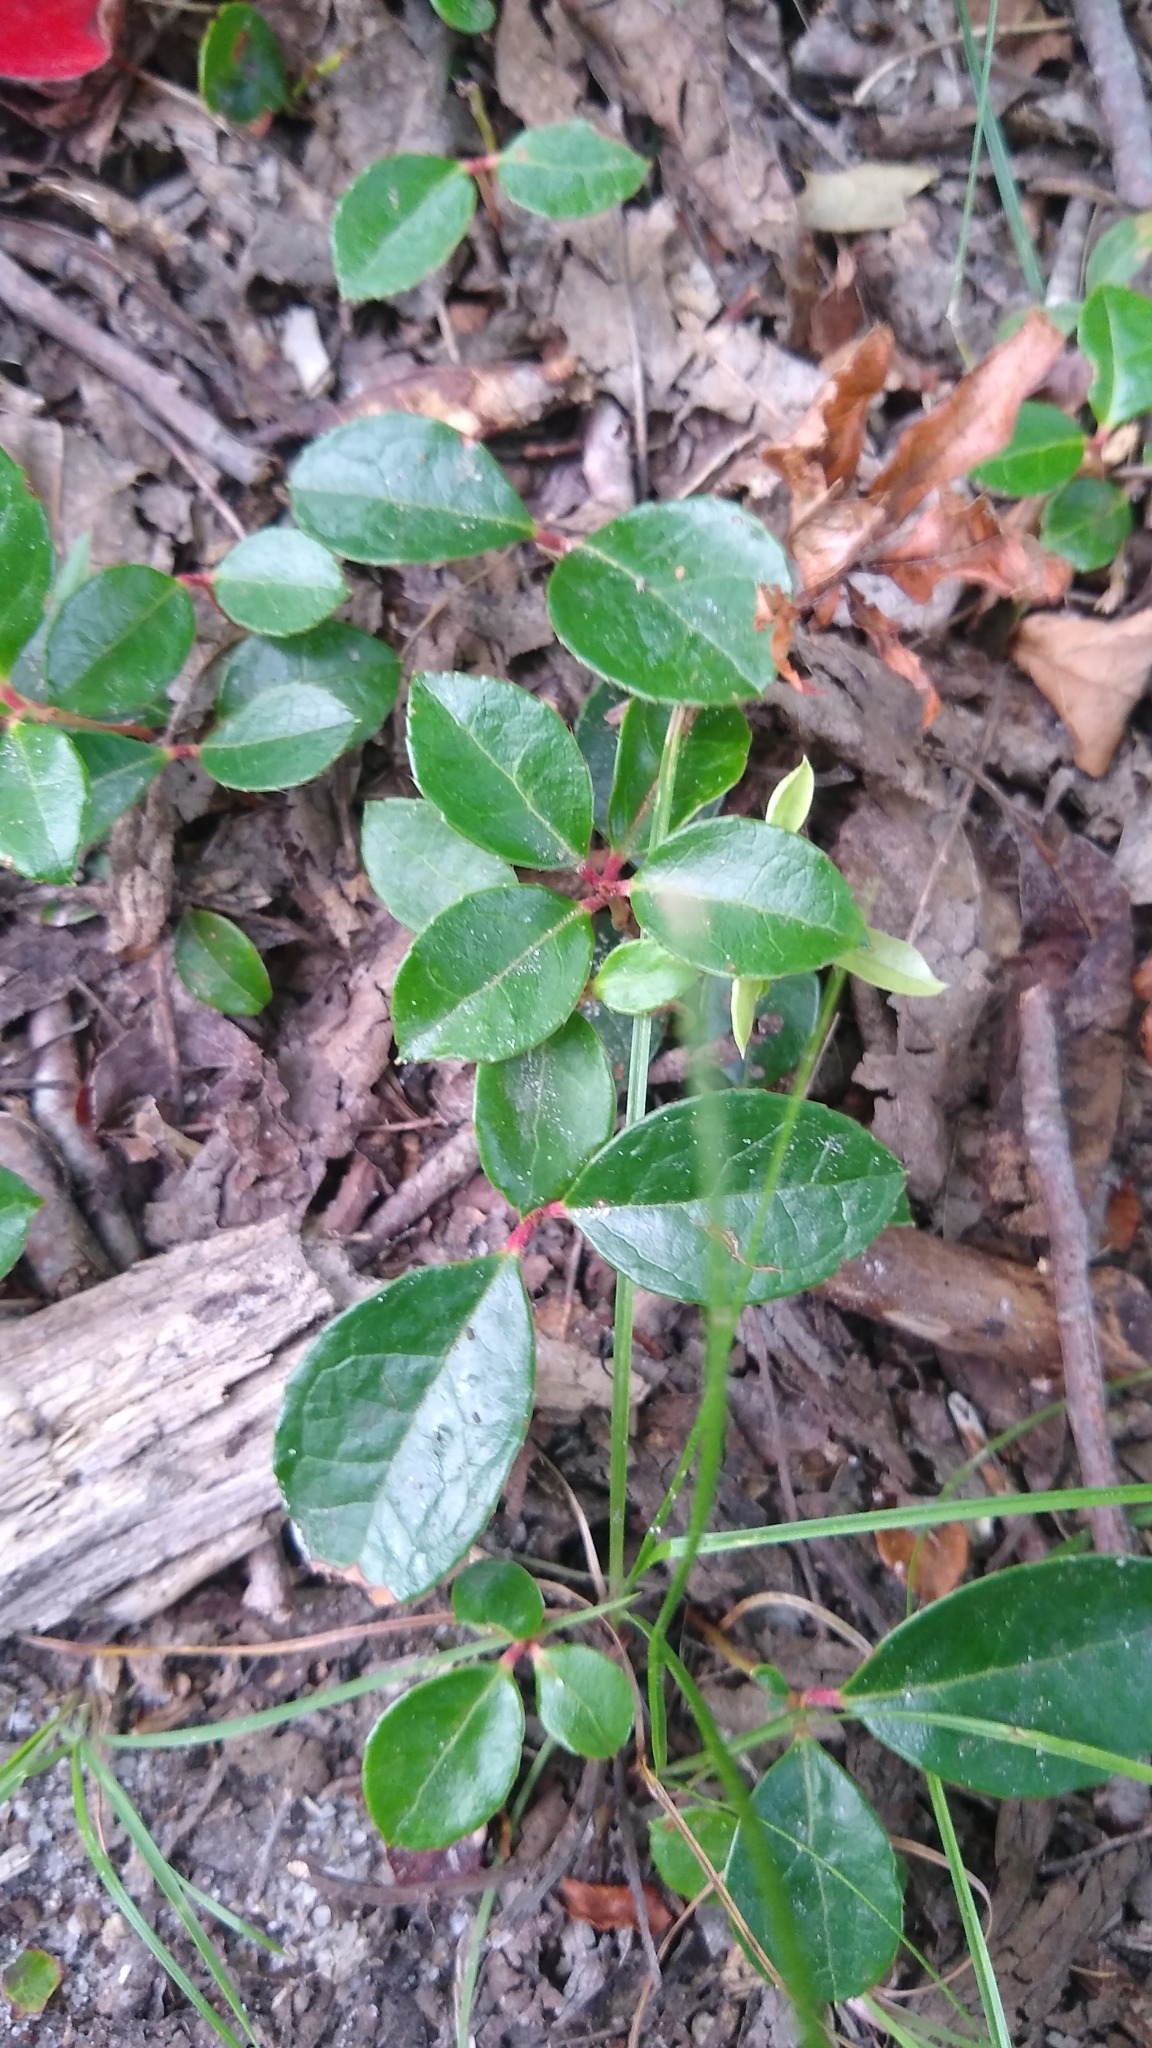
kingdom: Plantae
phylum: Tracheophyta
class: Magnoliopsida
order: Ericales
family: Ericaceae
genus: Gaultheria
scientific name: Gaultheria procumbens
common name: Checkerberry
